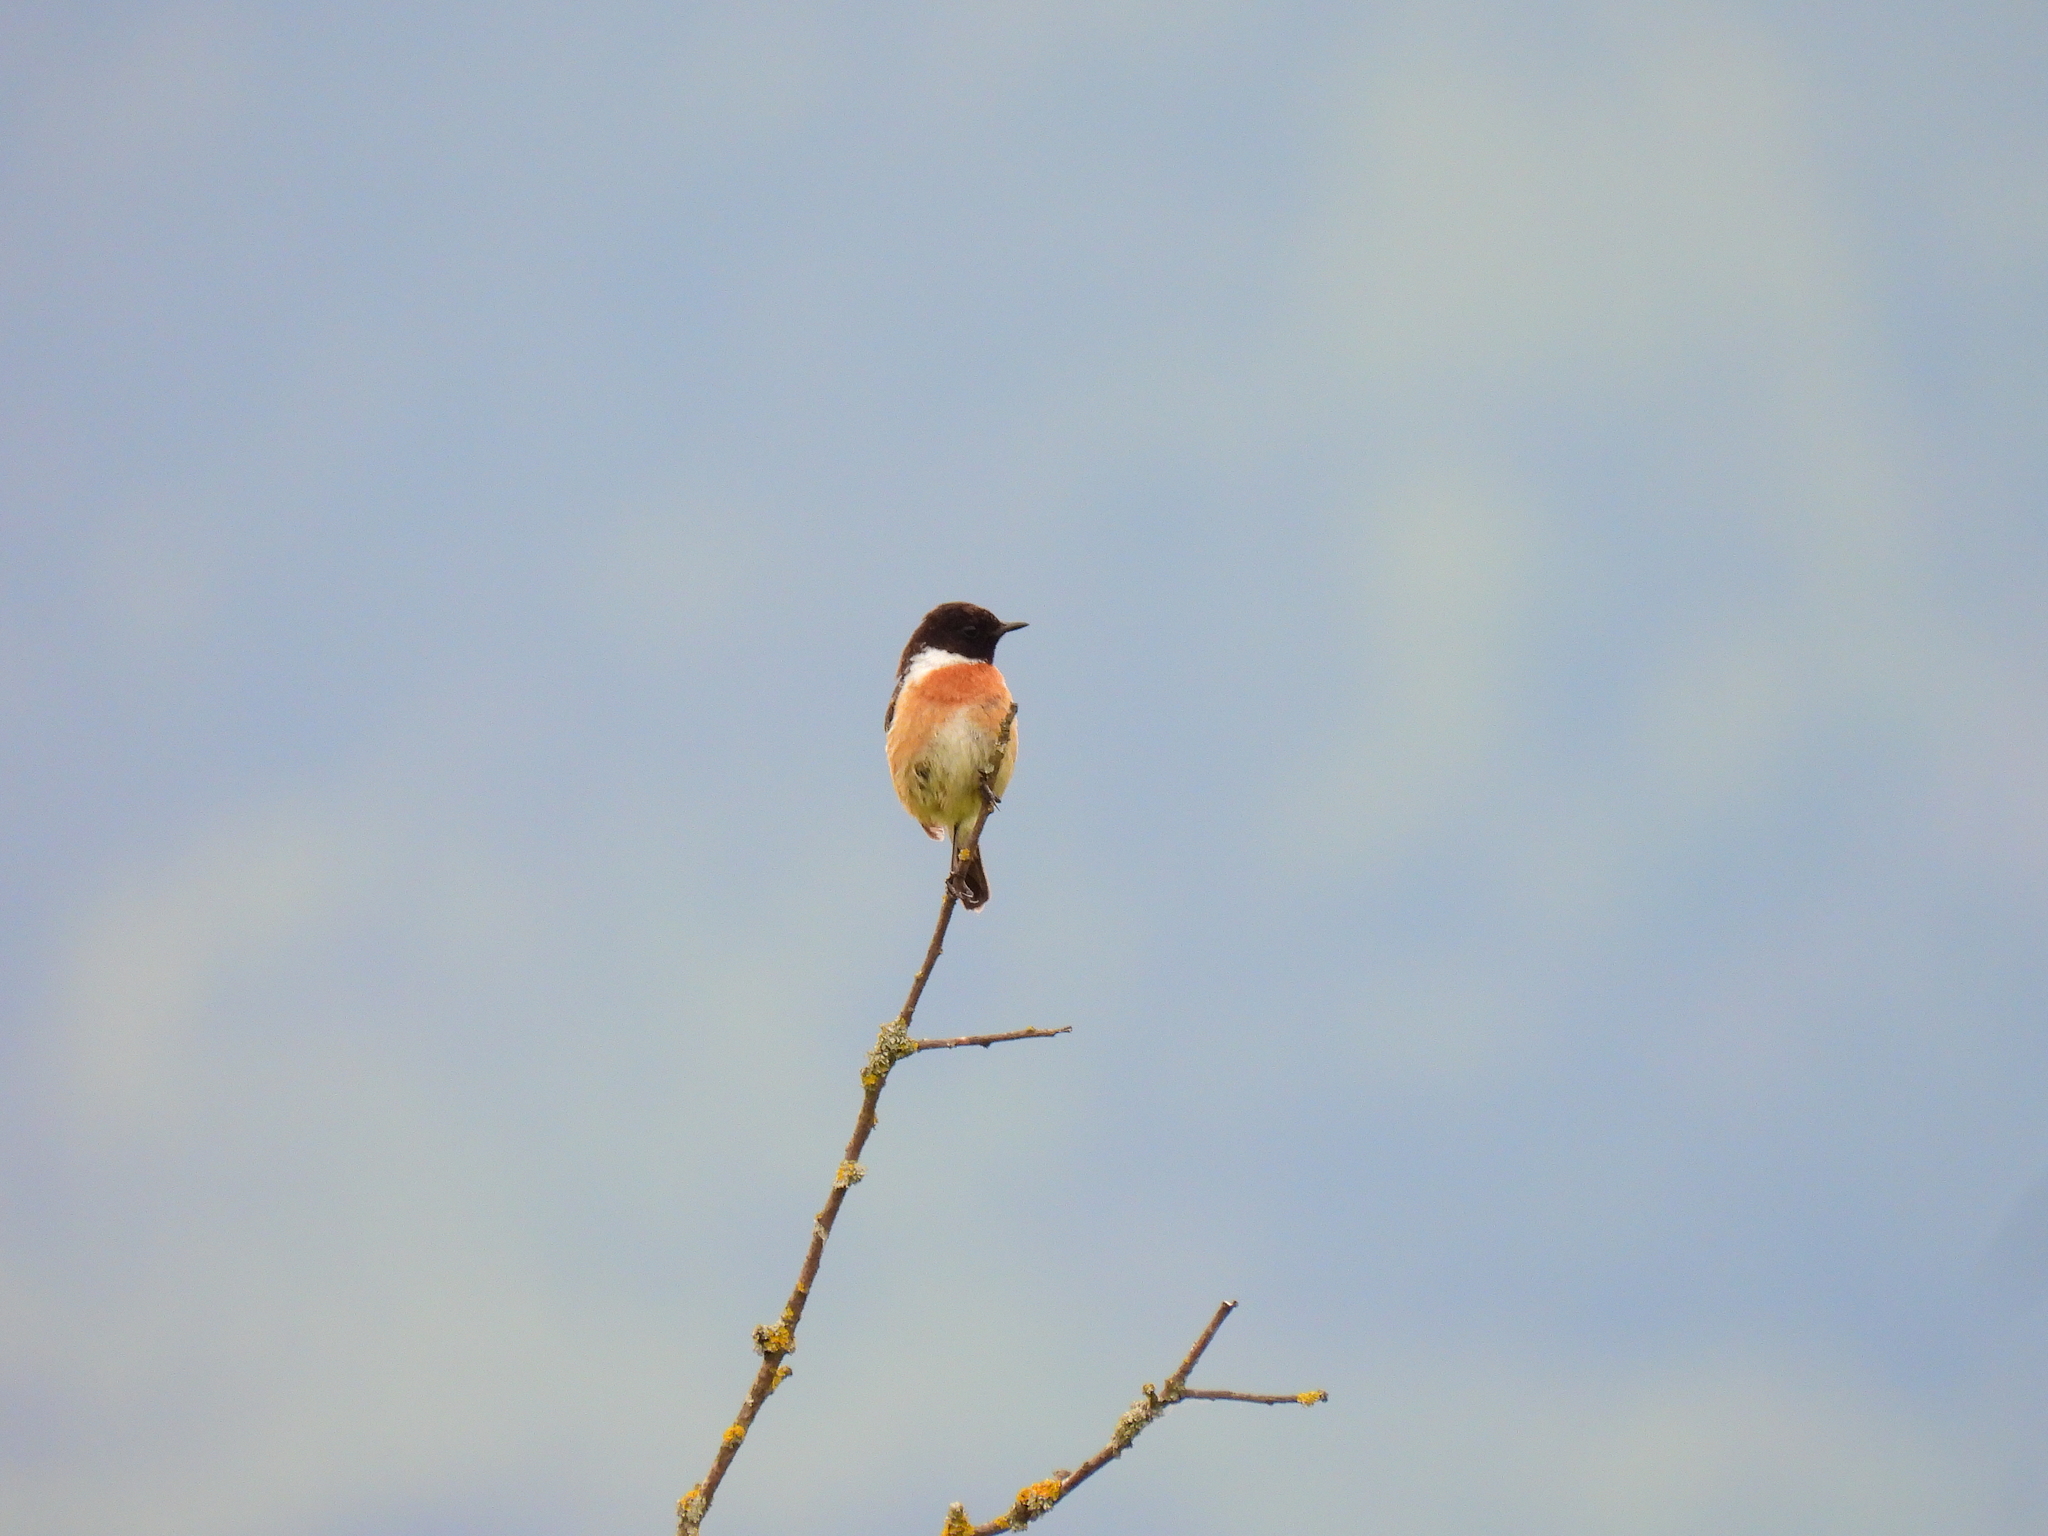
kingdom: Animalia
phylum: Chordata
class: Aves
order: Passeriformes
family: Muscicapidae
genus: Saxicola
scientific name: Saxicola rubicola
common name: European stonechat
